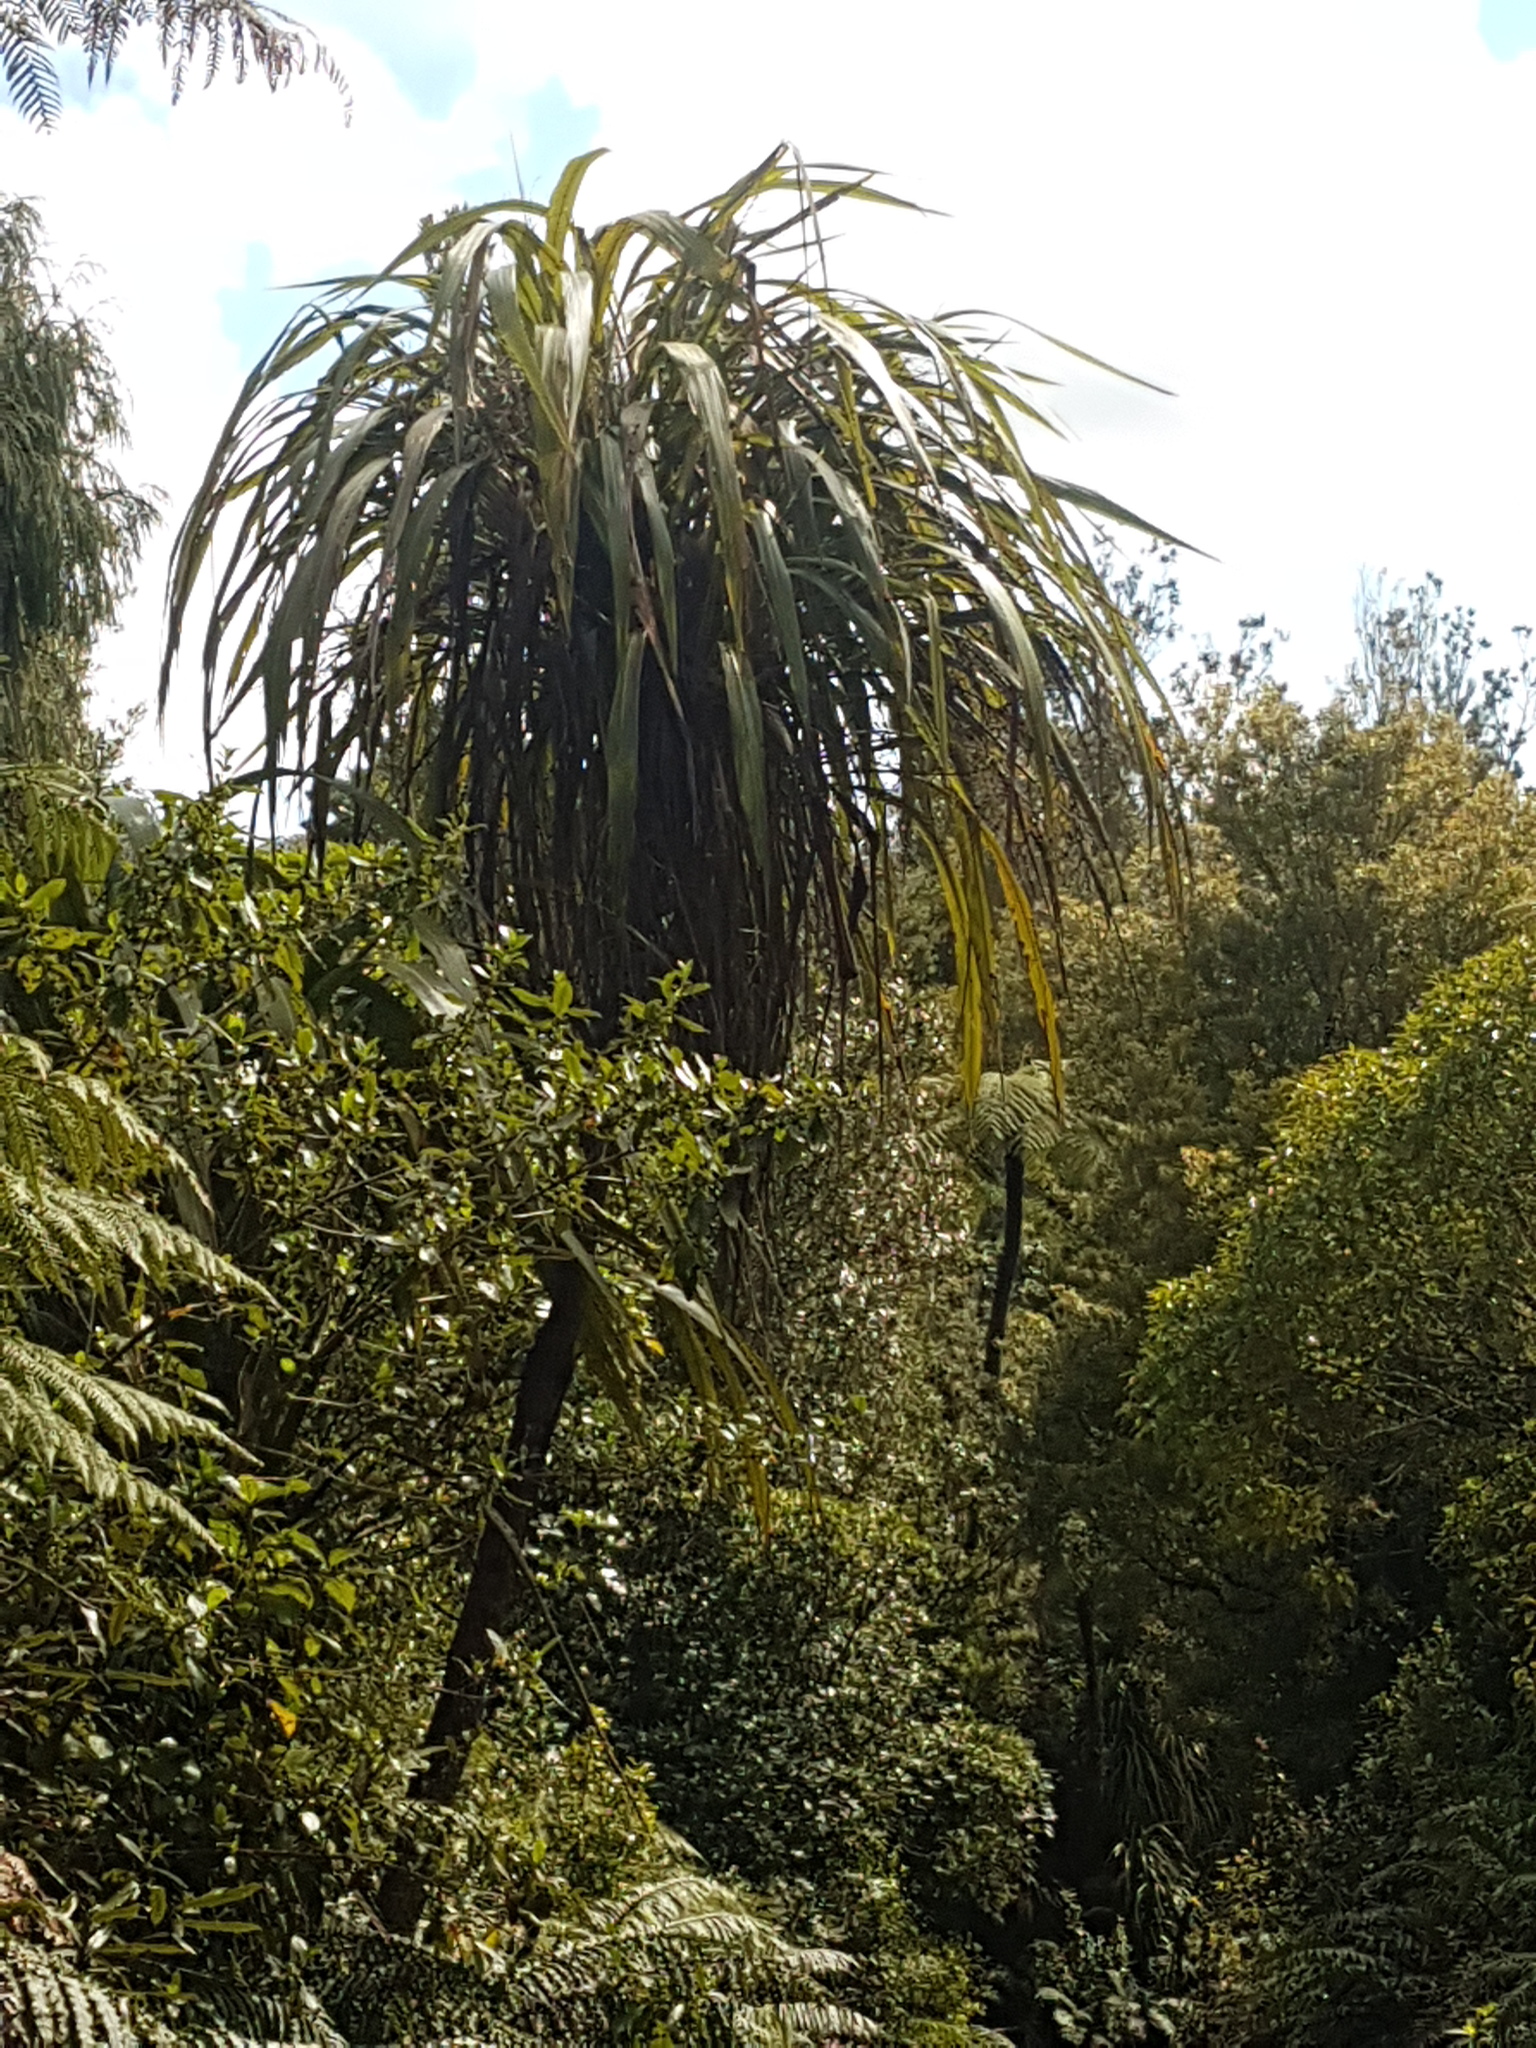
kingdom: Plantae
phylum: Tracheophyta
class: Liliopsida
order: Asparagales
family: Asparagaceae
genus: Cordyline
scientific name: Cordyline banksii
